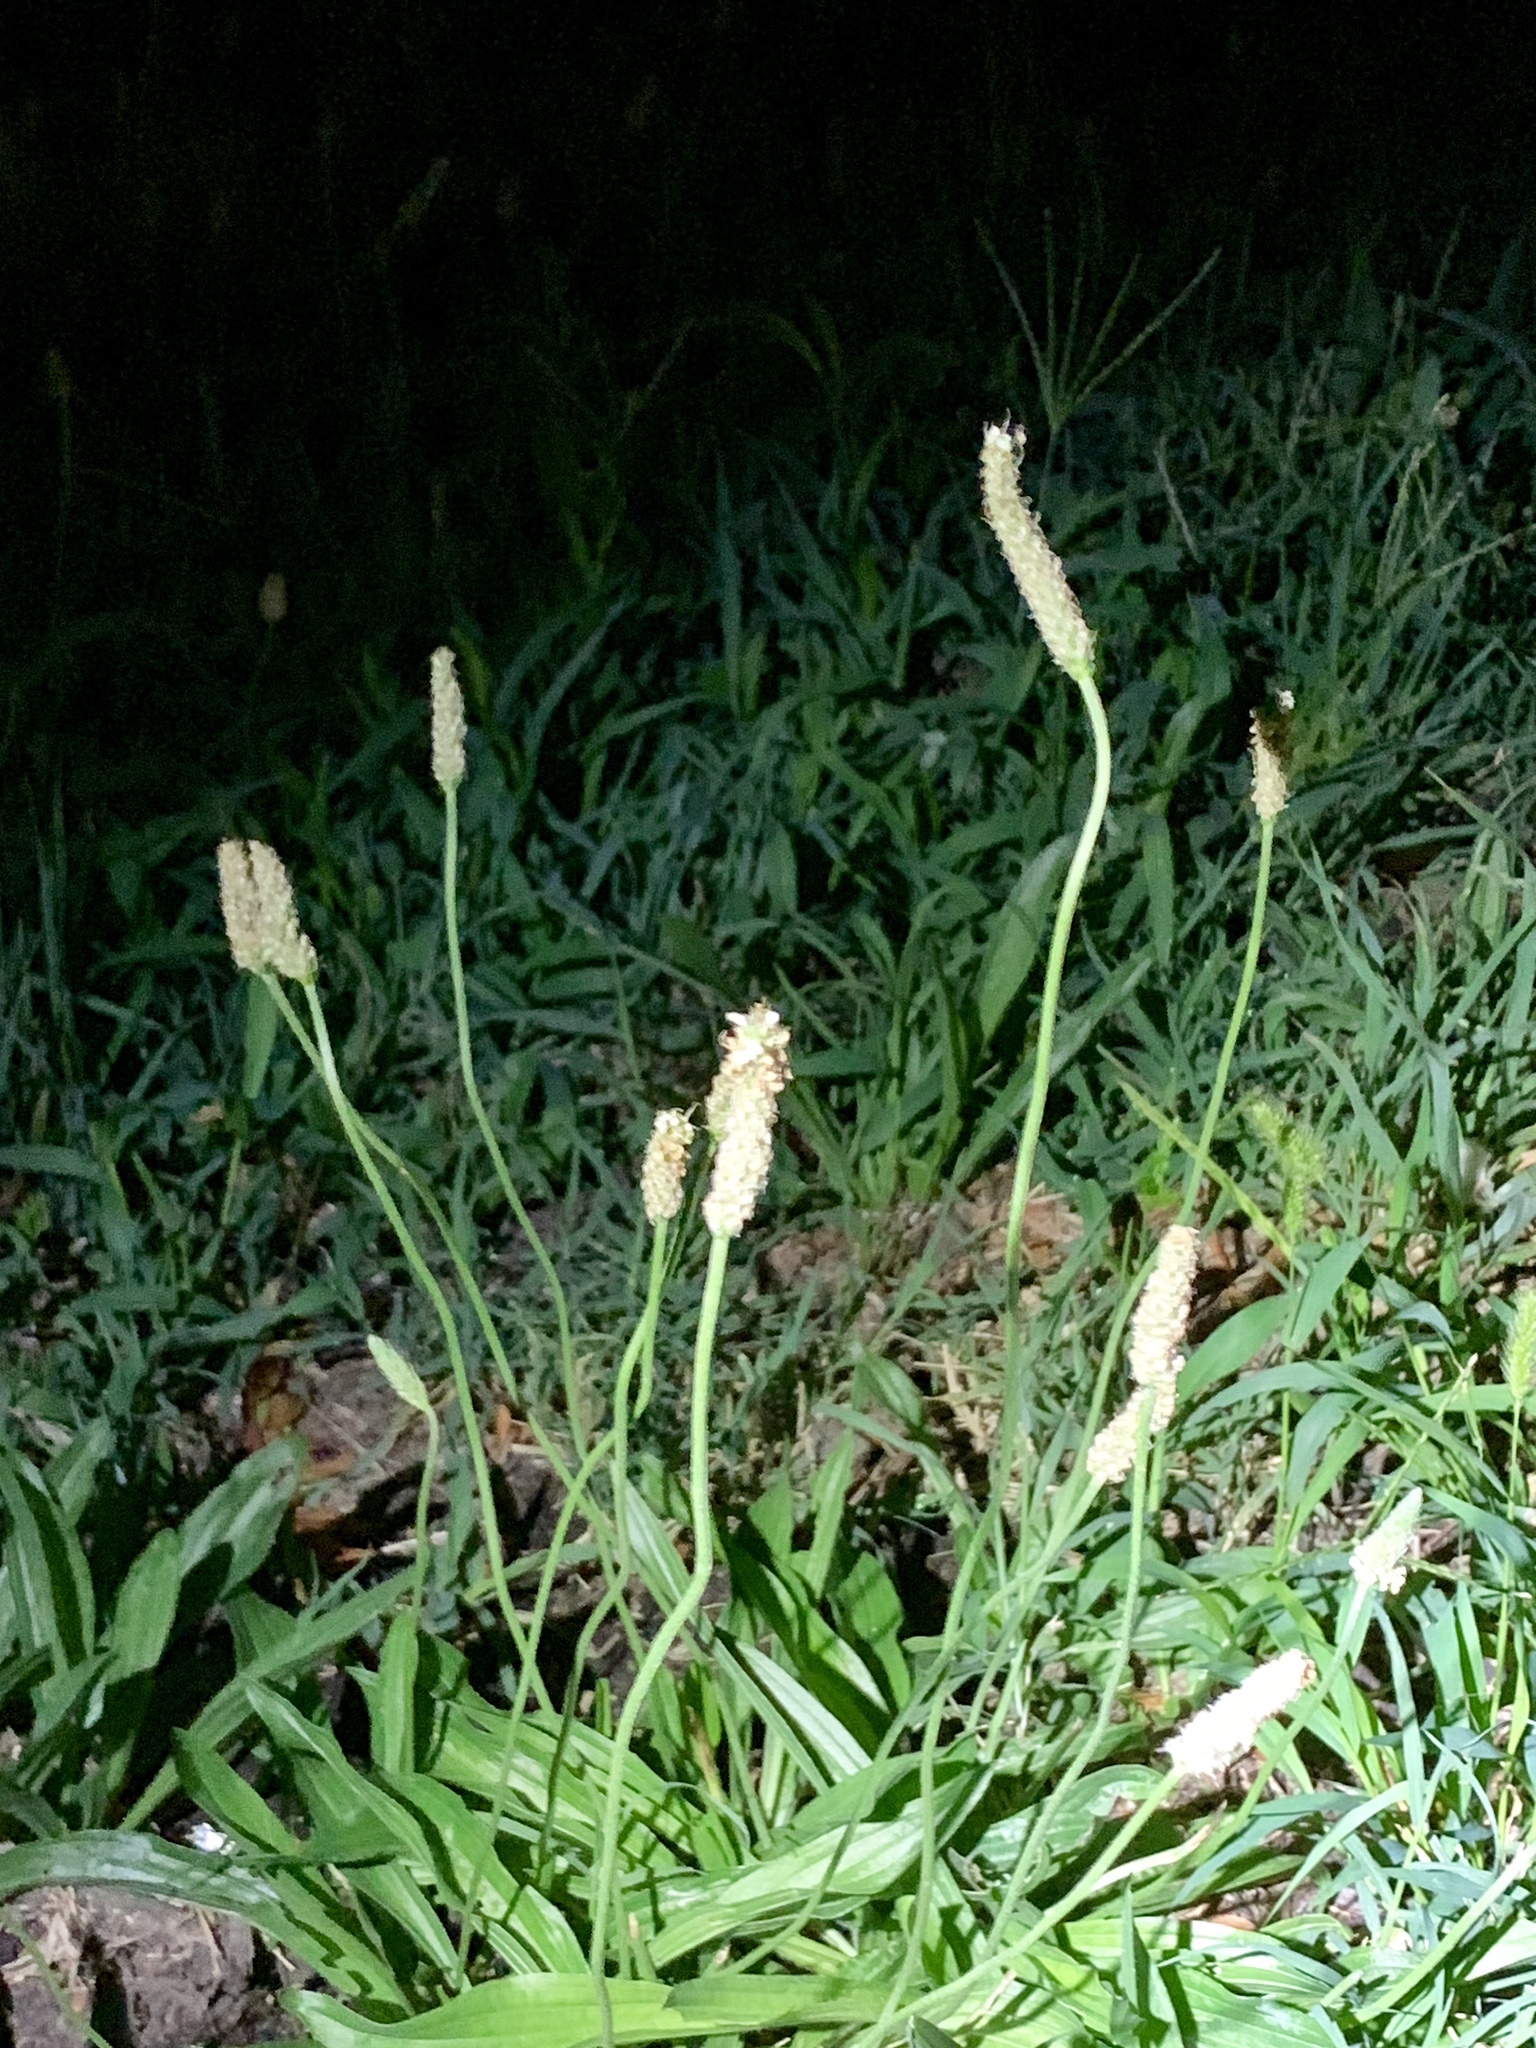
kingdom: Plantae
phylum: Tracheophyta
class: Magnoliopsida
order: Lamiales
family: Plantaginaceae
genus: Plantago
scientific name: Plantago lanceolata
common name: Ribwort plantain
